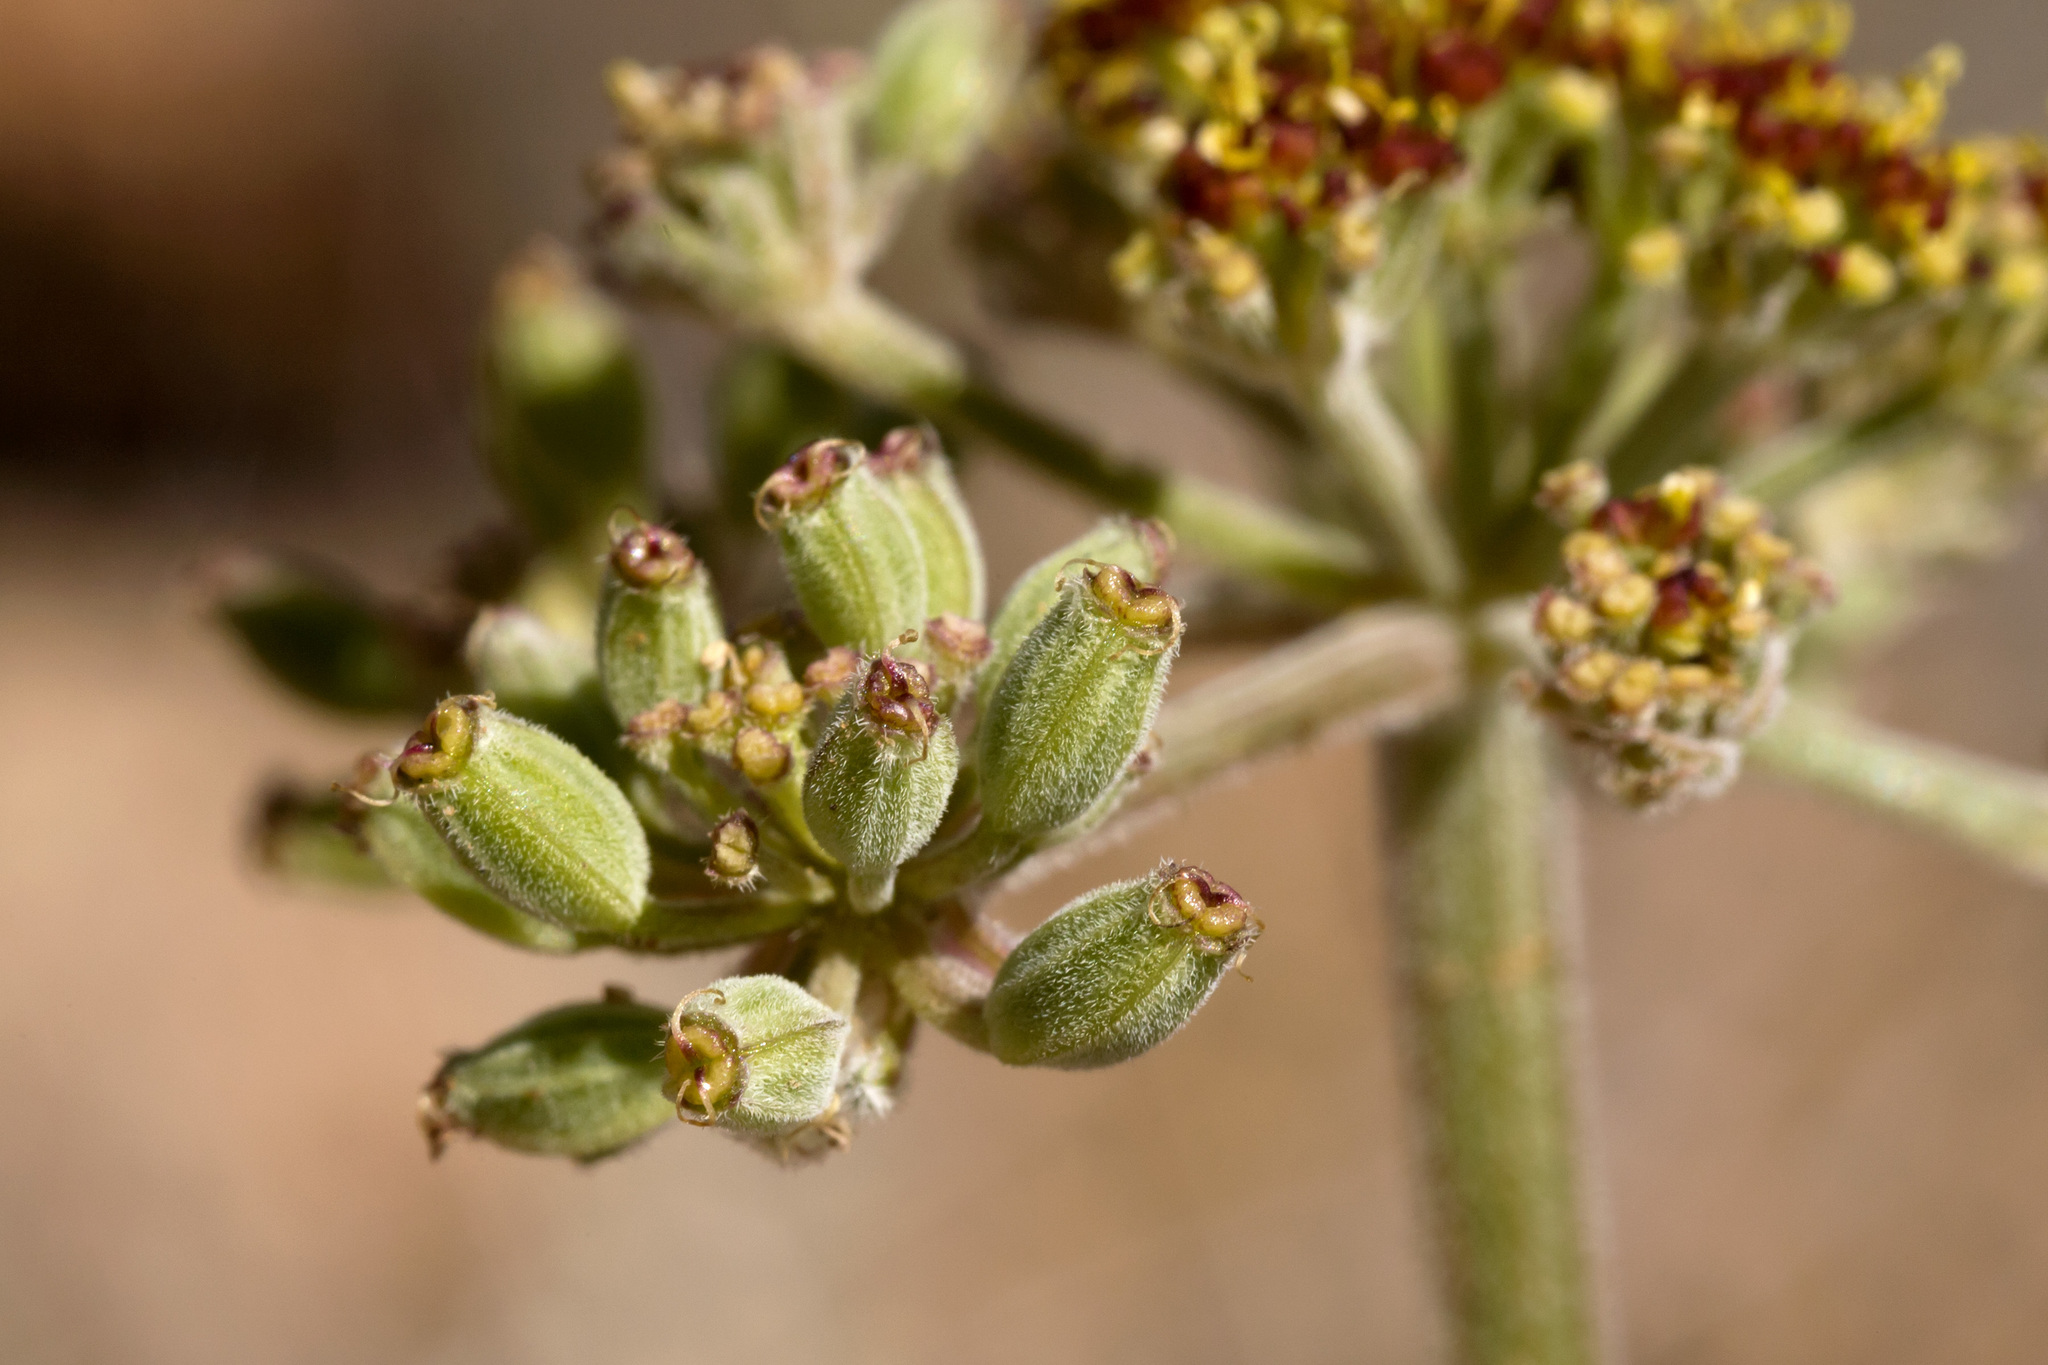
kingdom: Plantae
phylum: Tracheophyta
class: Magnoliopsida
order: Apiales
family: Apiaceae
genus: Lomatium
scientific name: Lomatium foeniculaceum
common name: Desert-parsley
